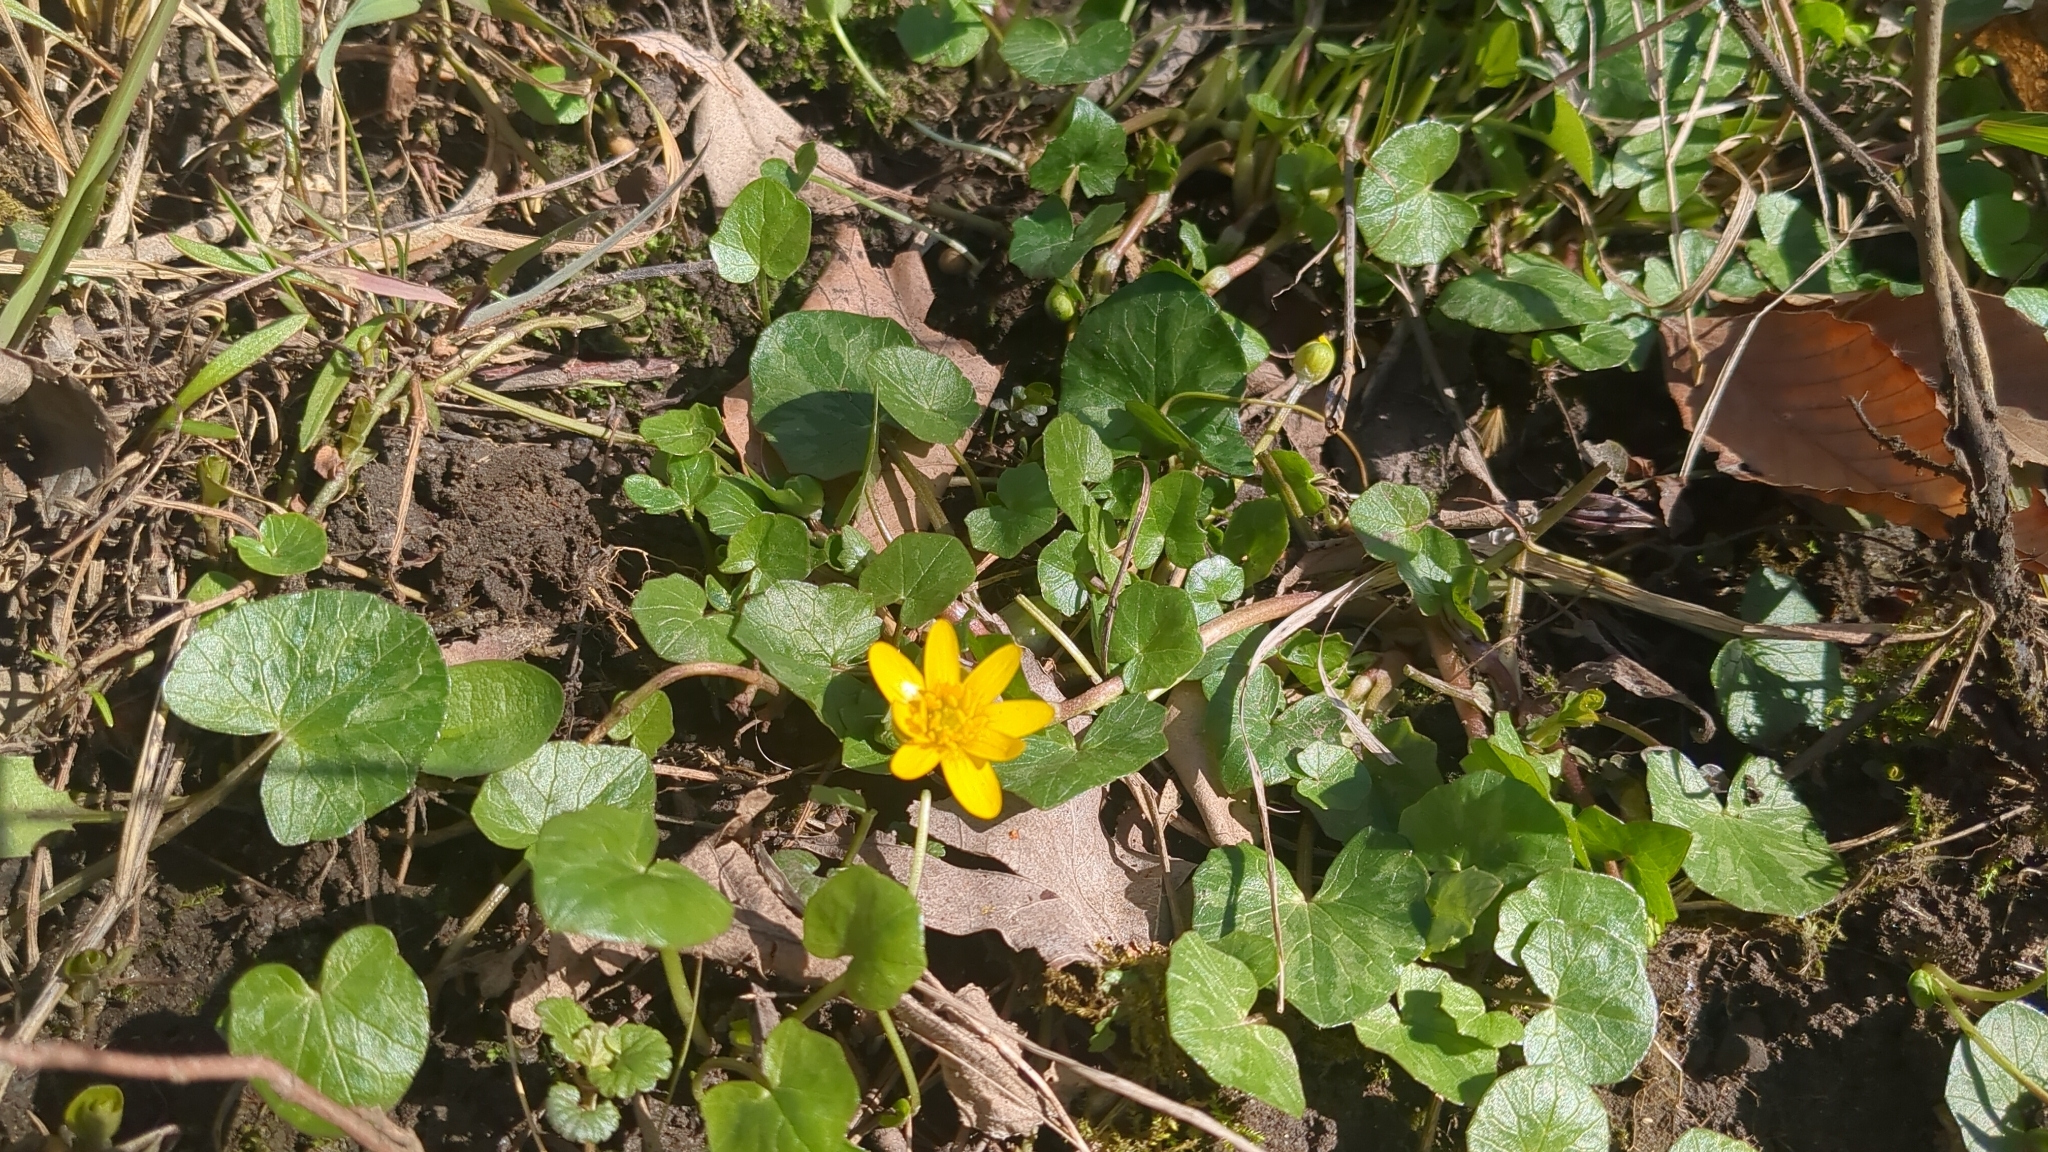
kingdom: Plantae
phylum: Tracheophyta
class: Magnoliopsida
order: Ranunculales
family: Ranunculaceae
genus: Ficaria
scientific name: Ficaria verna
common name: Lesser celandine
